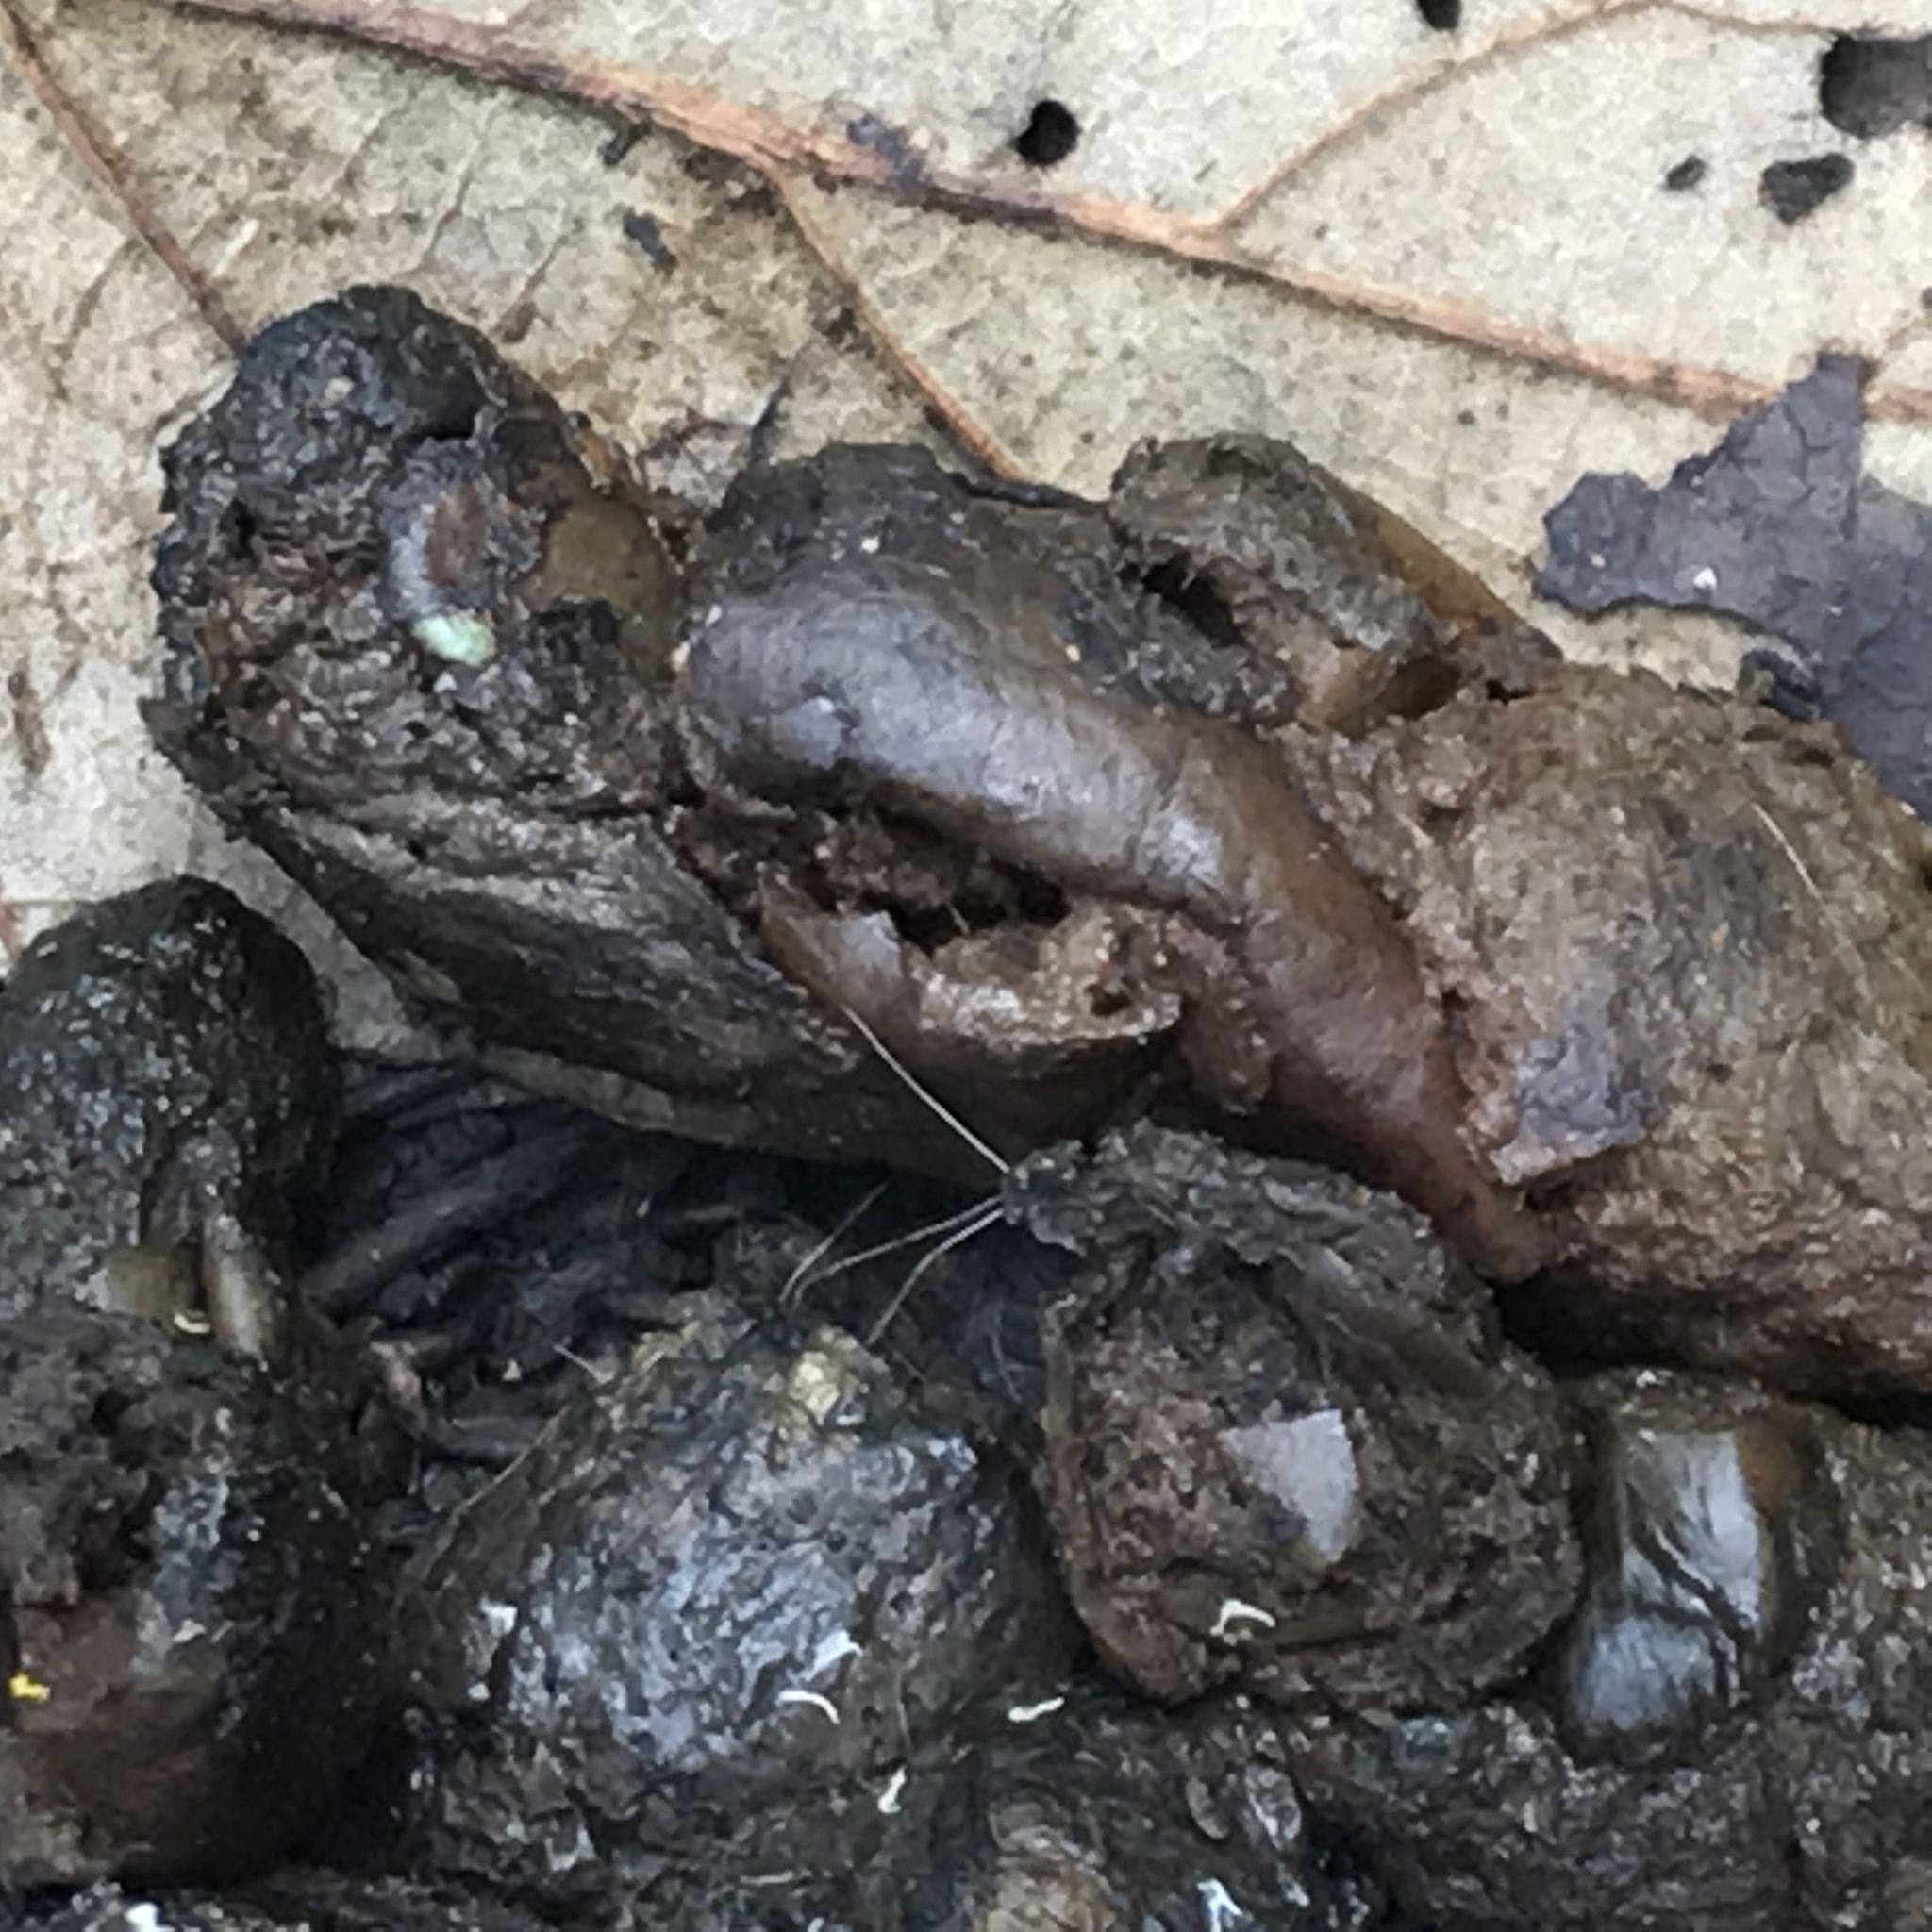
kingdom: Animalia
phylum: Chordata
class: Mammalia
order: Carnivora
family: Canidae
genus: Urocyon
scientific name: Urocyon cinereoargenteus
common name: Gray fox
